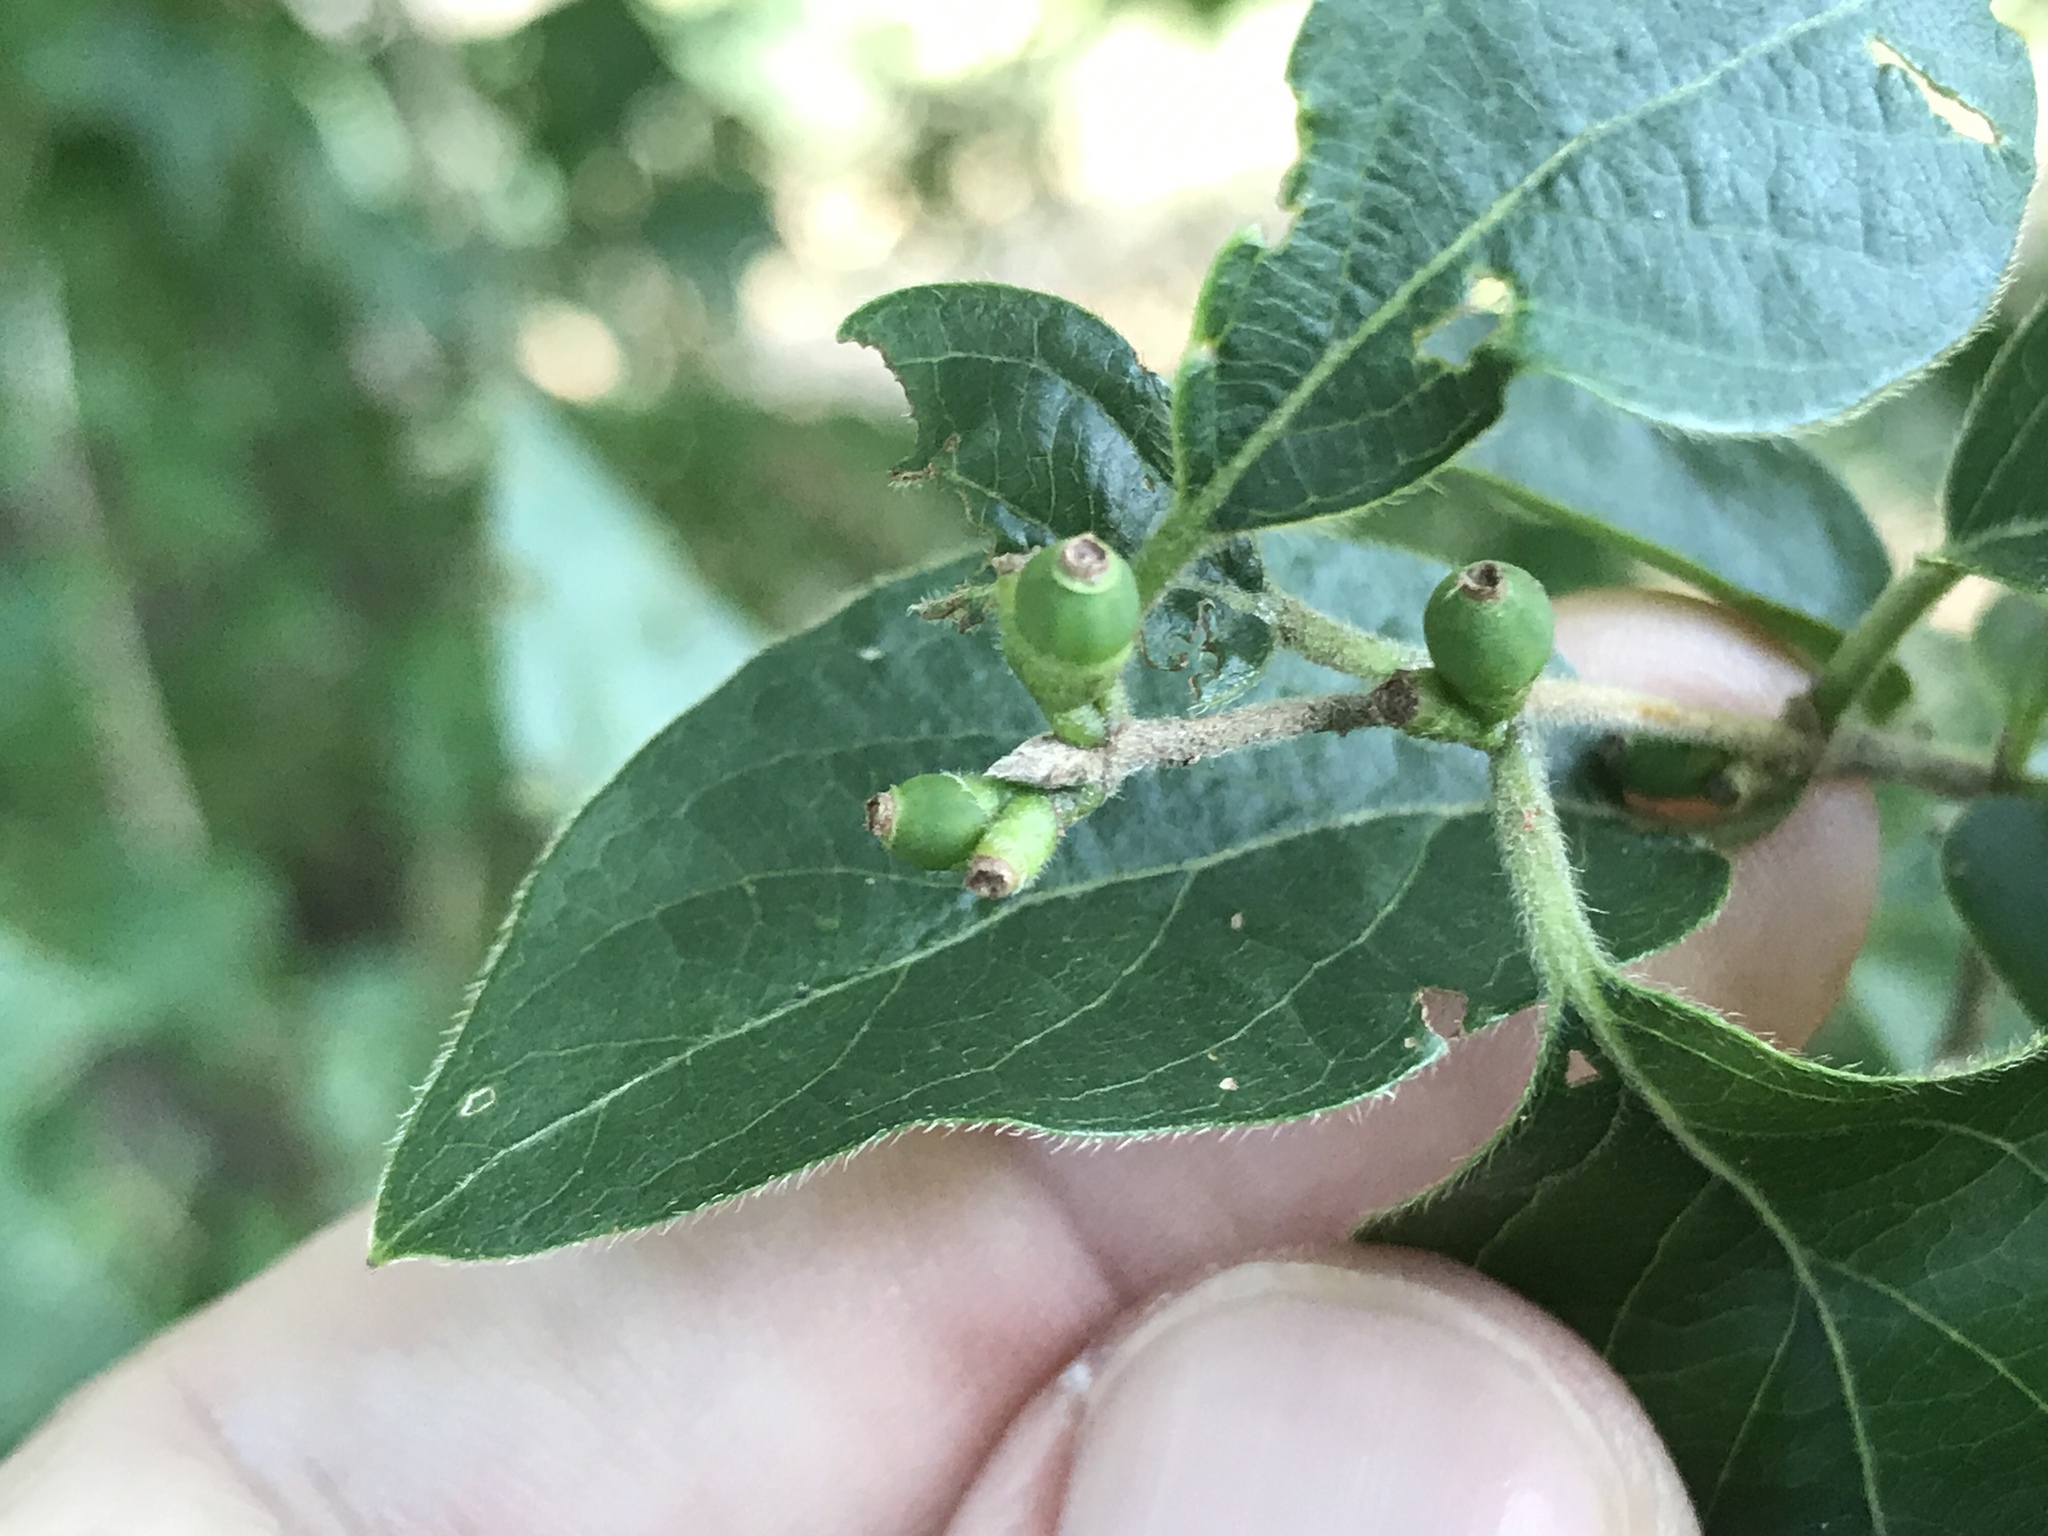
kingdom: Plantae
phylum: Tracheophyta
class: Magnoliopsida
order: Dipsacales
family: Caprifoliaceae
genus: Lonicera
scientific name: Lonicera maackii
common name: Amur honeysuckle
